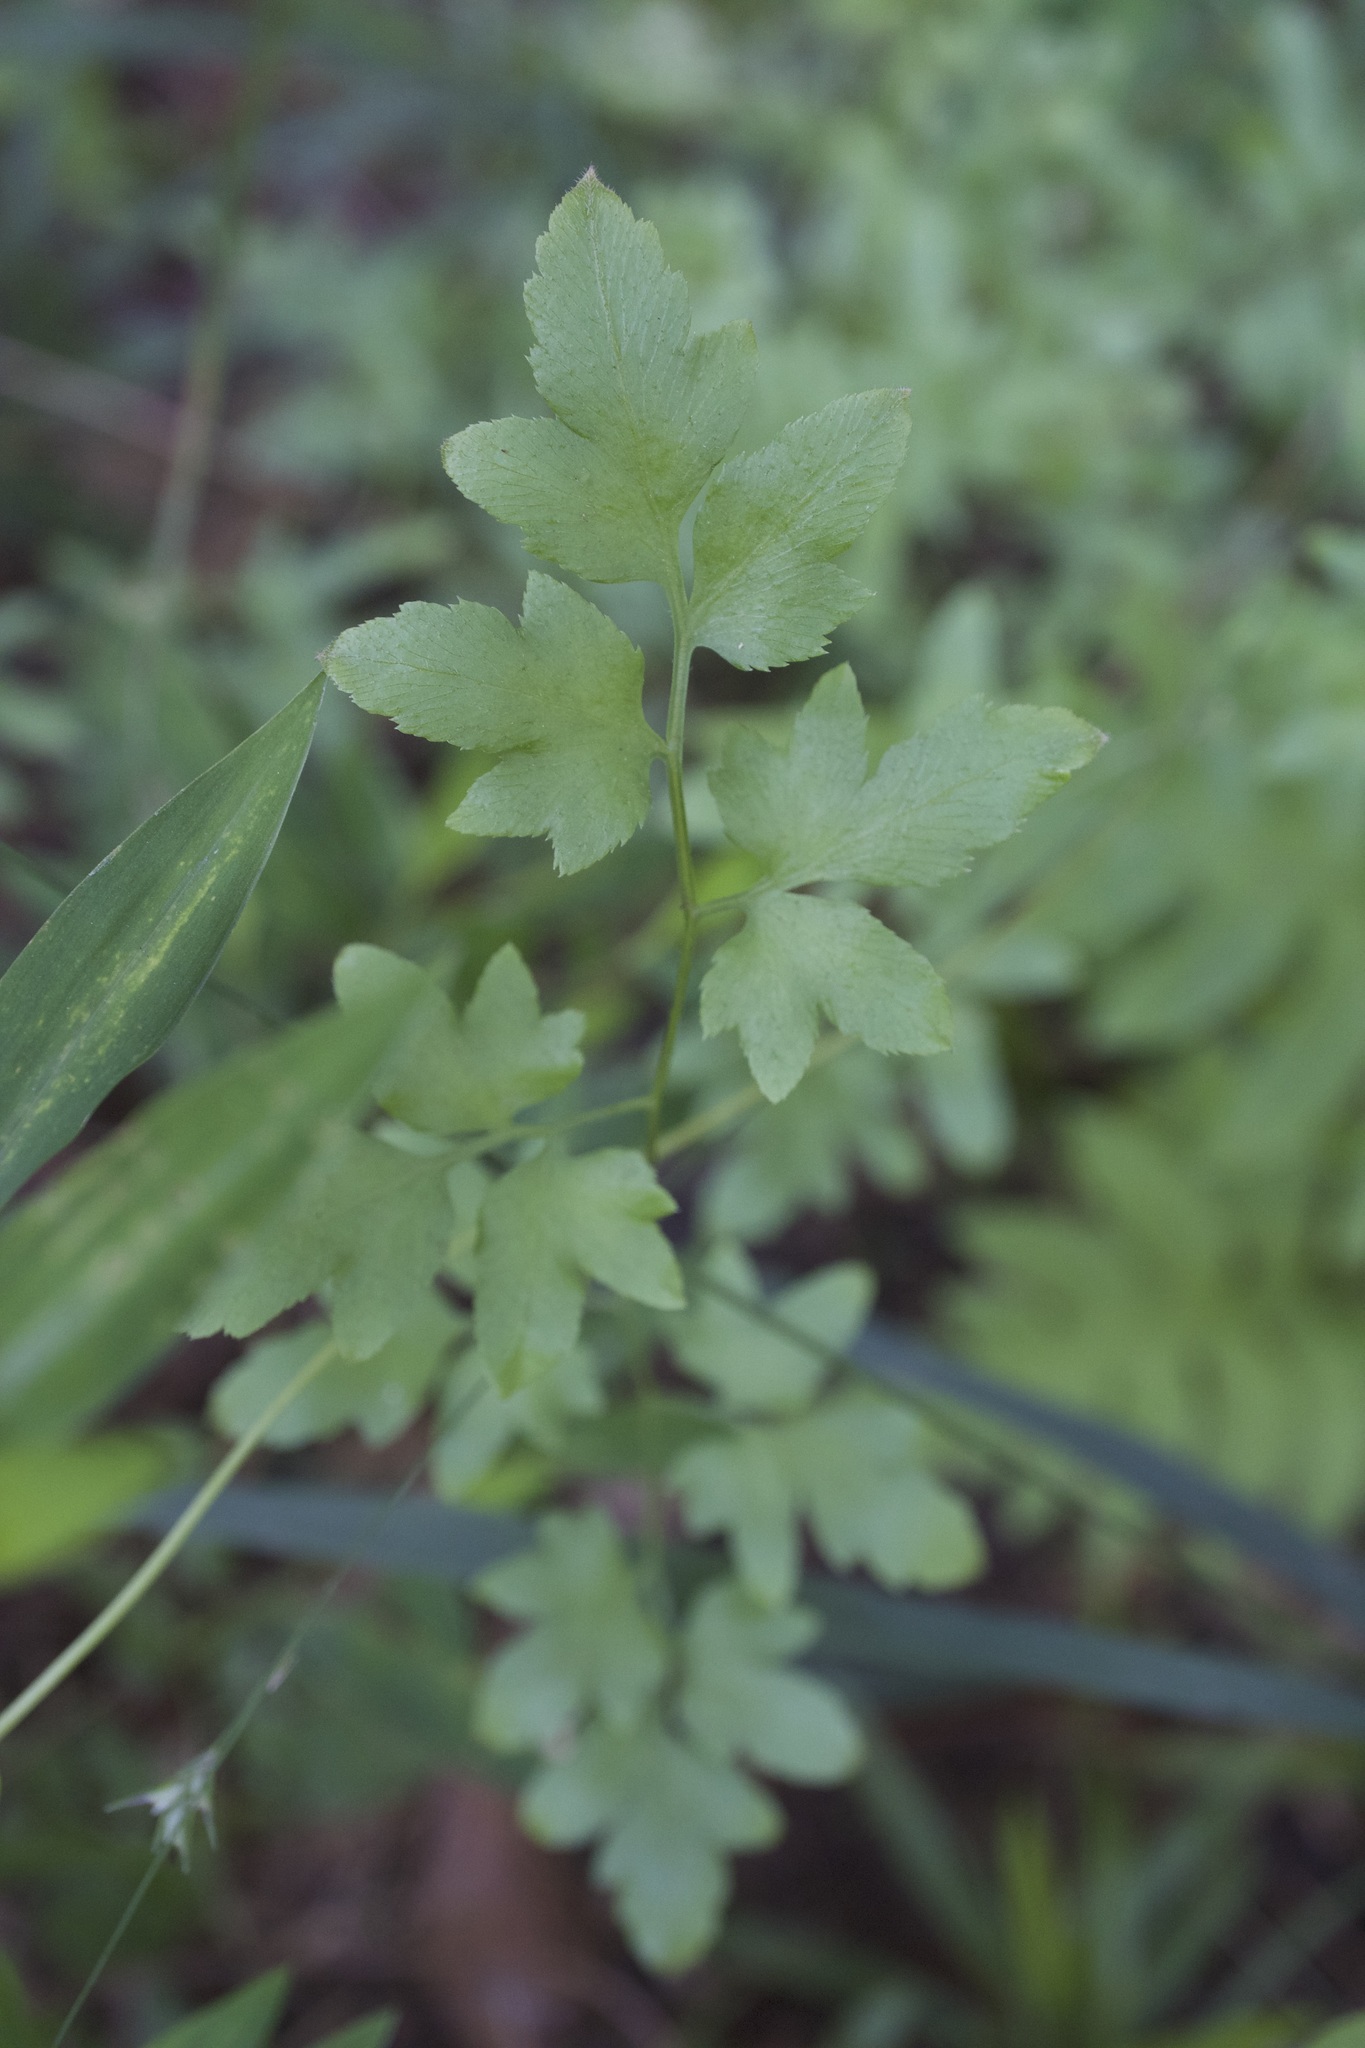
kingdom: Plantae
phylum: Tracheophyta
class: Polypodiopsida
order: Schizaeales
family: Lygodiaceae
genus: Lygodium
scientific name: Lygodium japonicum
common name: Japanese climbing fern
